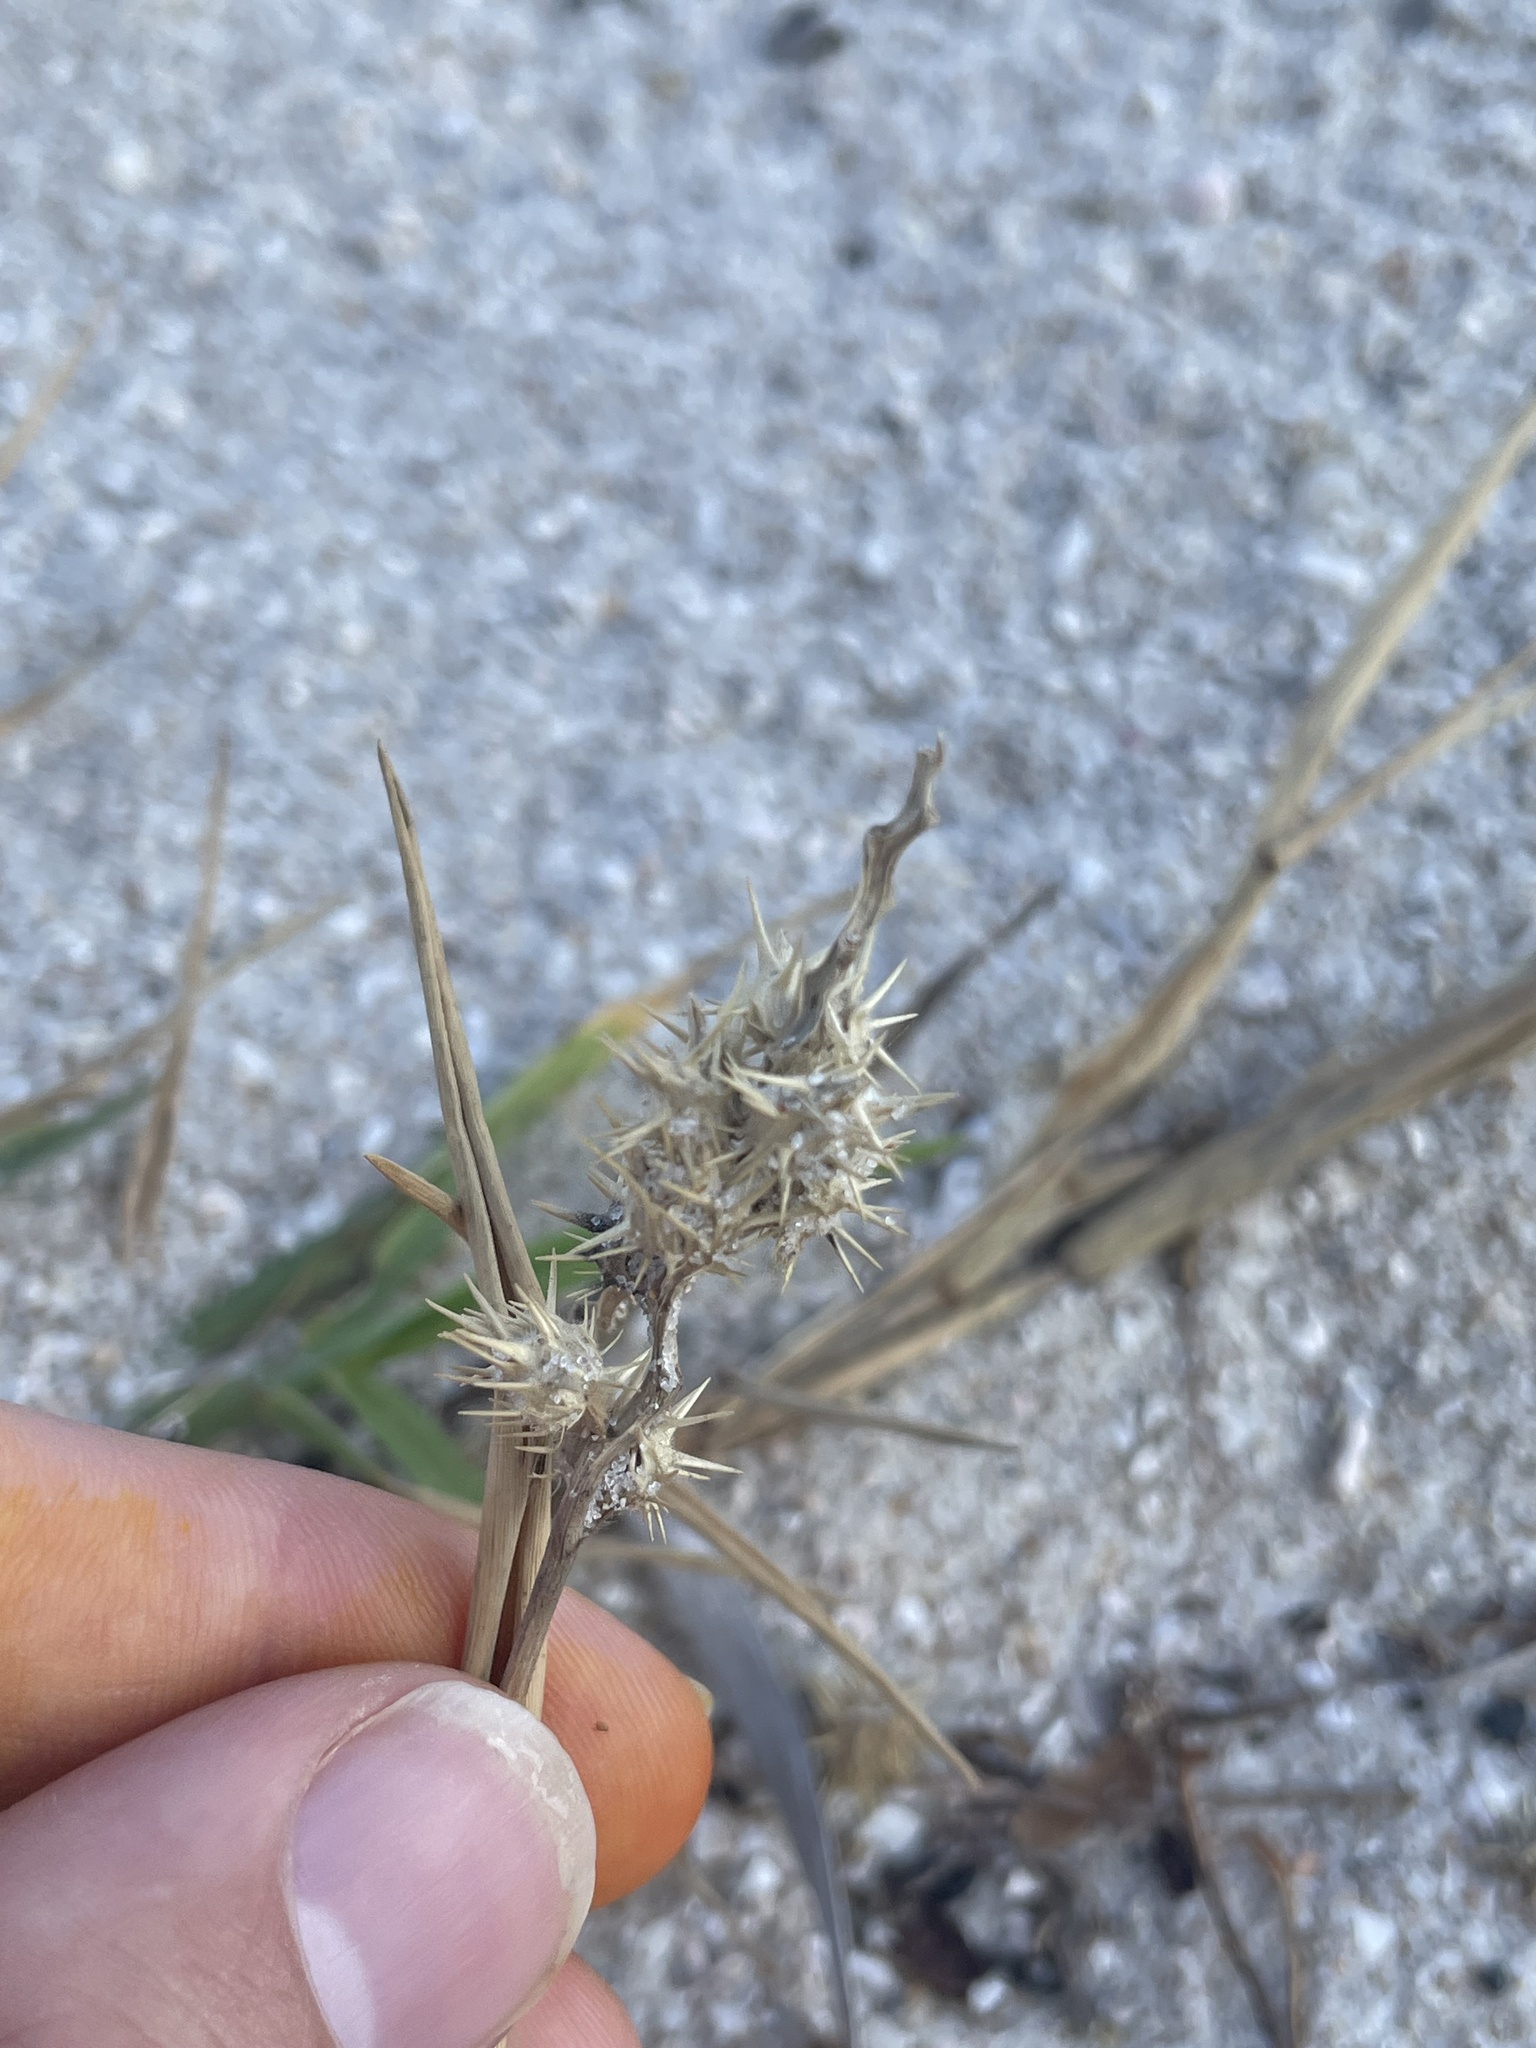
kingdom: Plantae
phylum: Tracheophyta
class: Liliopsida
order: Poales
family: Cyperaceae
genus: Cyperus
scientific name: Cyperus pedunculatus
